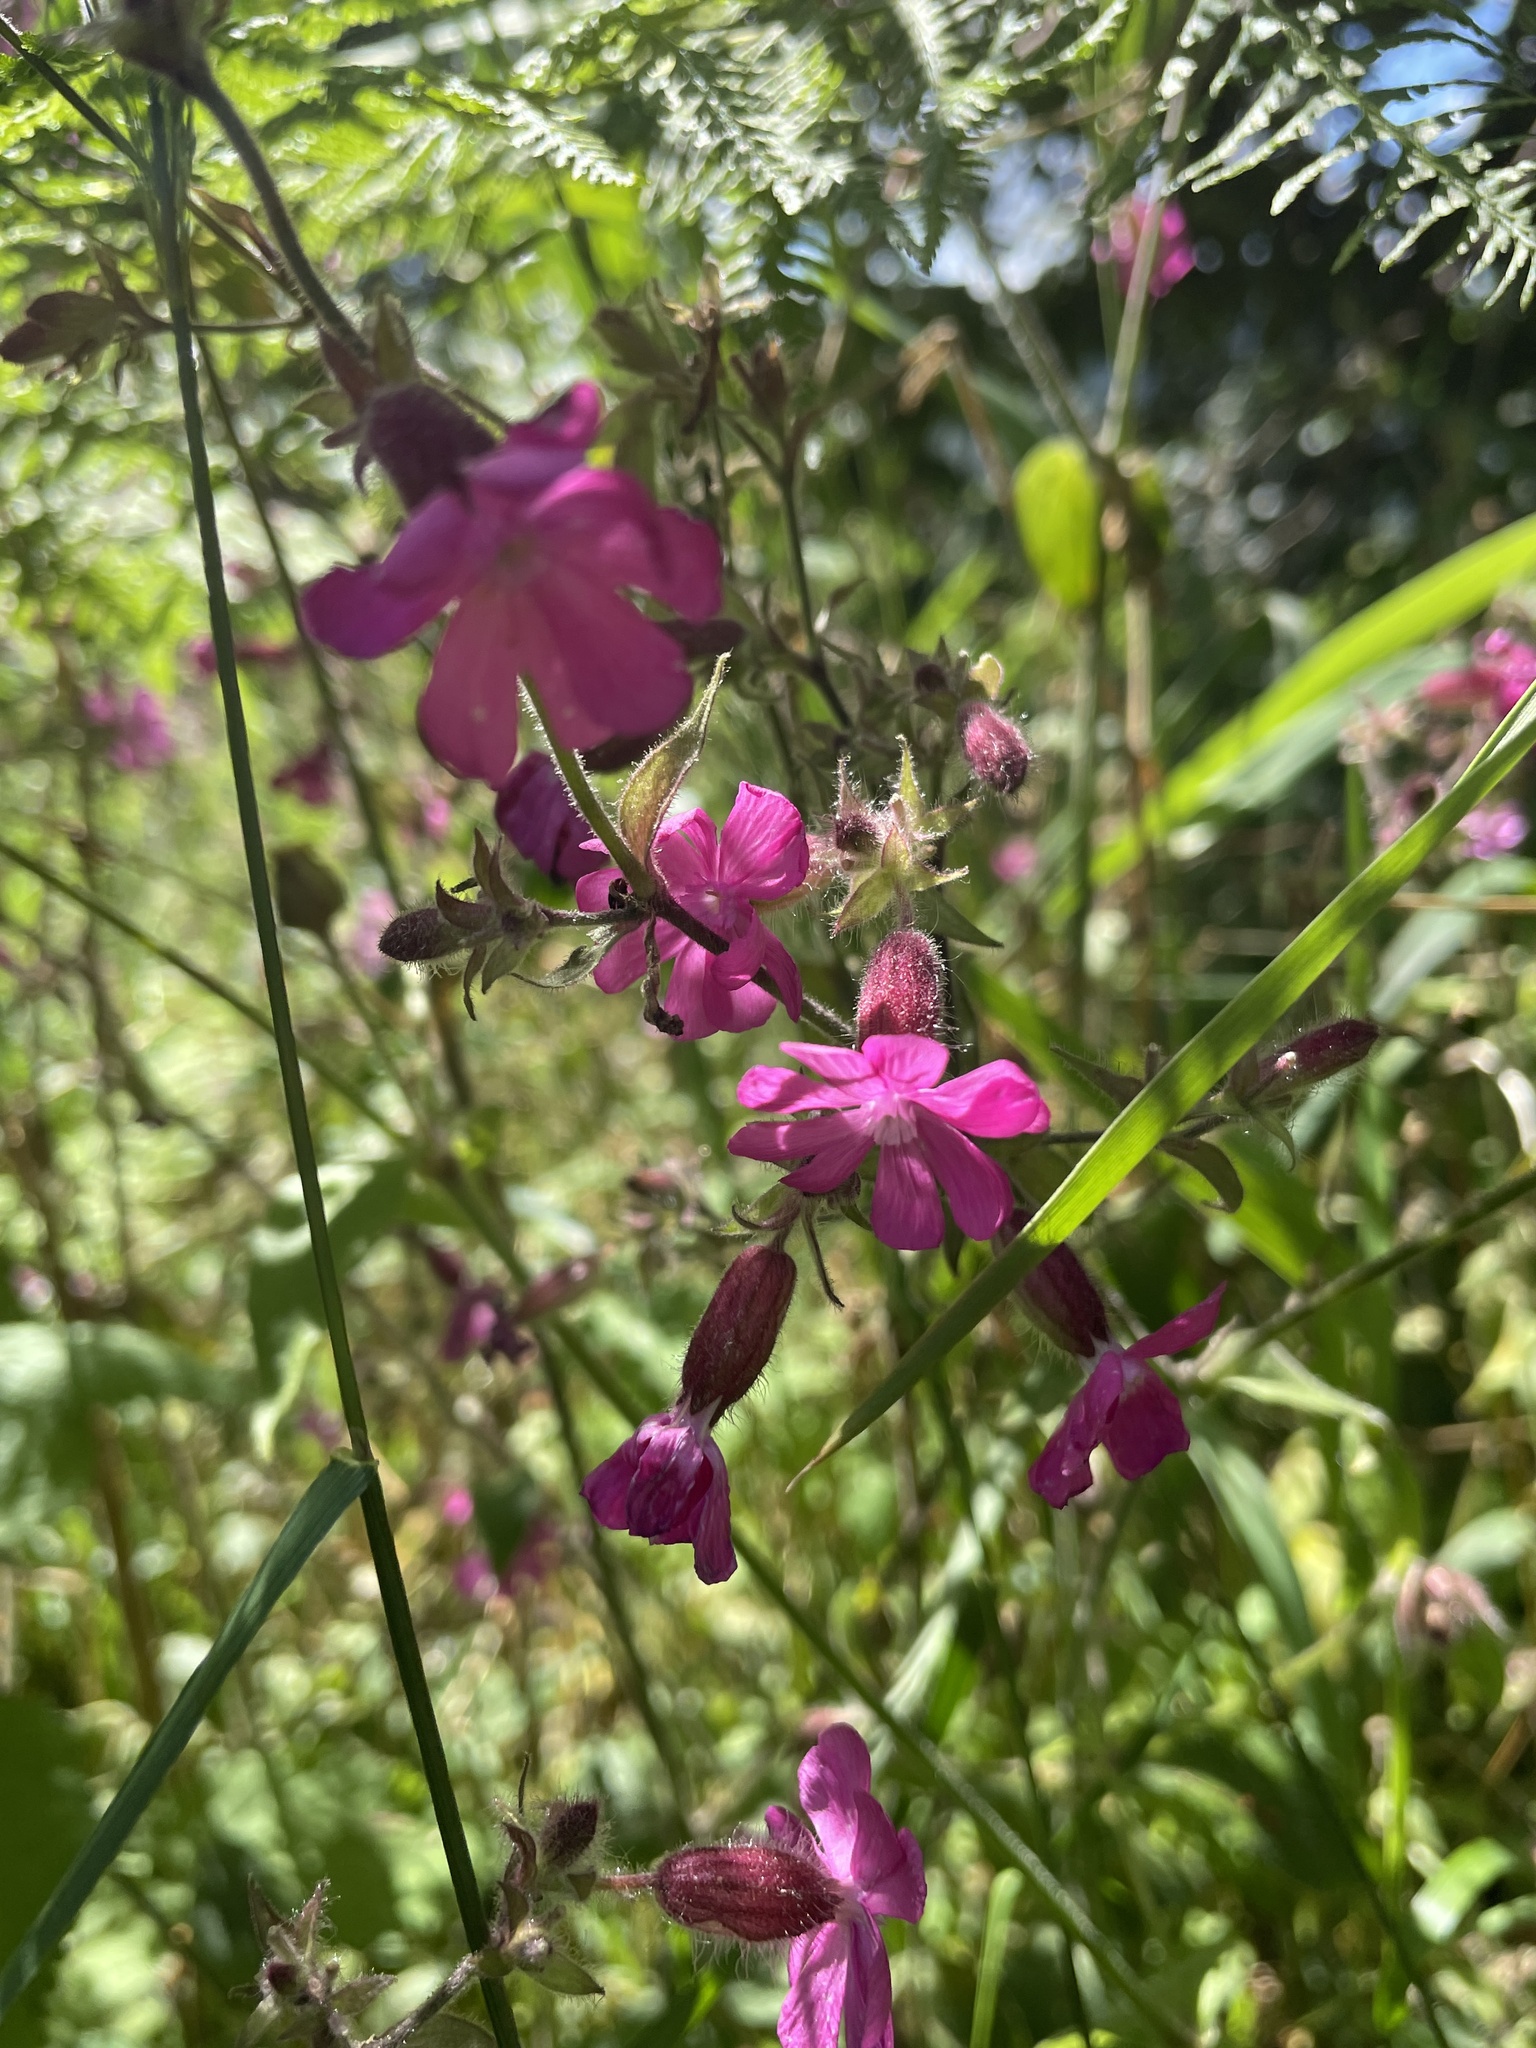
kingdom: Plantae
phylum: Tracheophyta
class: Magnoliopsida
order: Caryophyllales
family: Caryophyllaceae
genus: Silene
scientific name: Silene dioica
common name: Red campion
